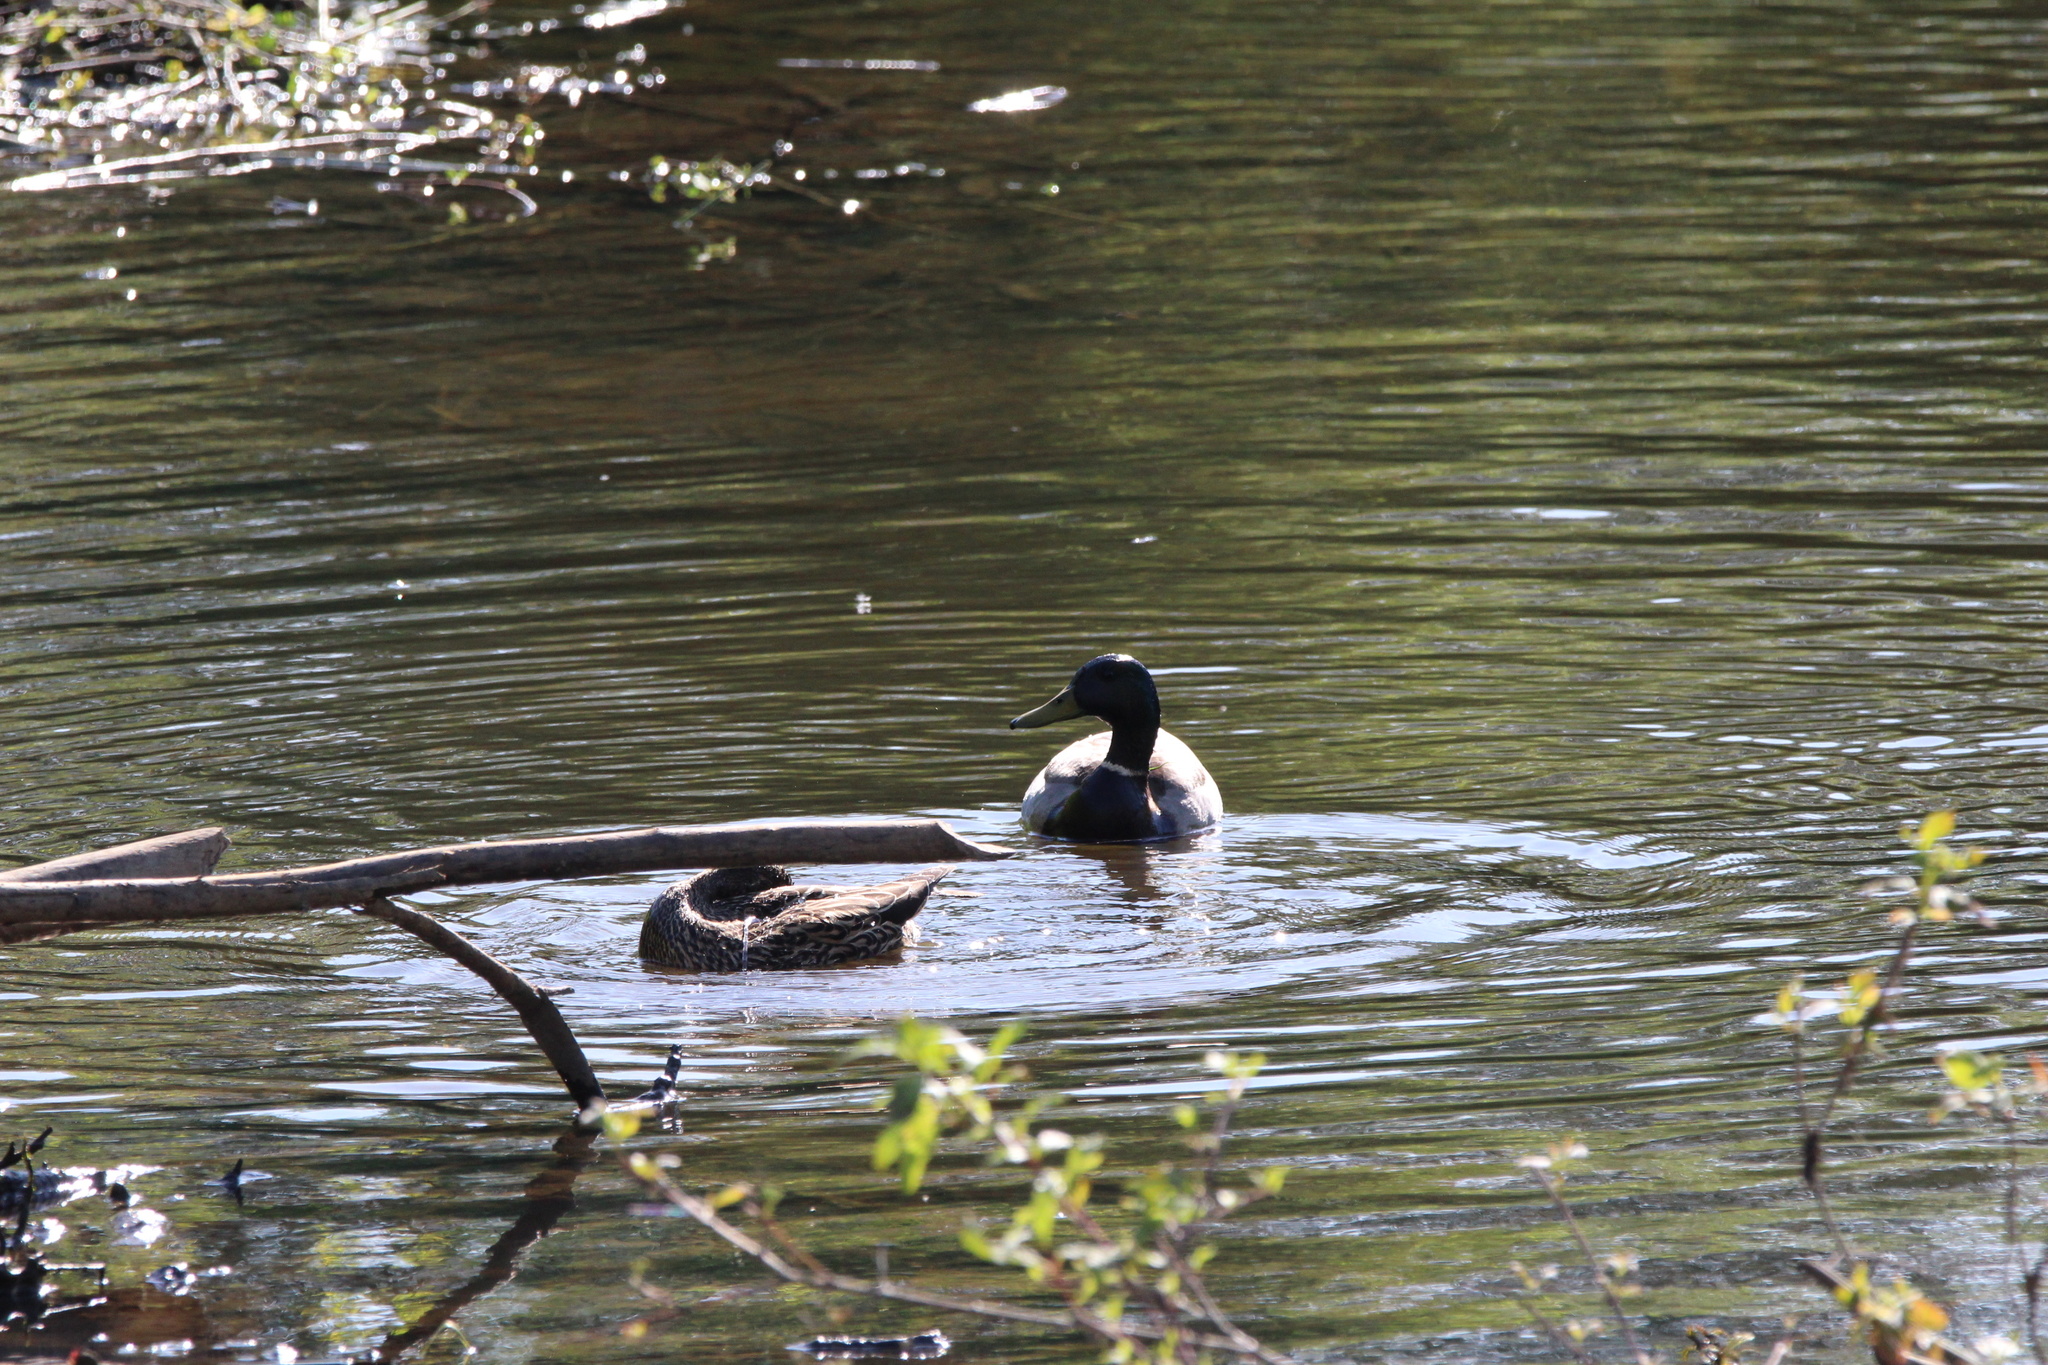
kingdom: Animalia
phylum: Chordata
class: Aves
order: Anseriformes
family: Anatidae
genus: Anas
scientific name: Anas platyrhynchos
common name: Mallard
